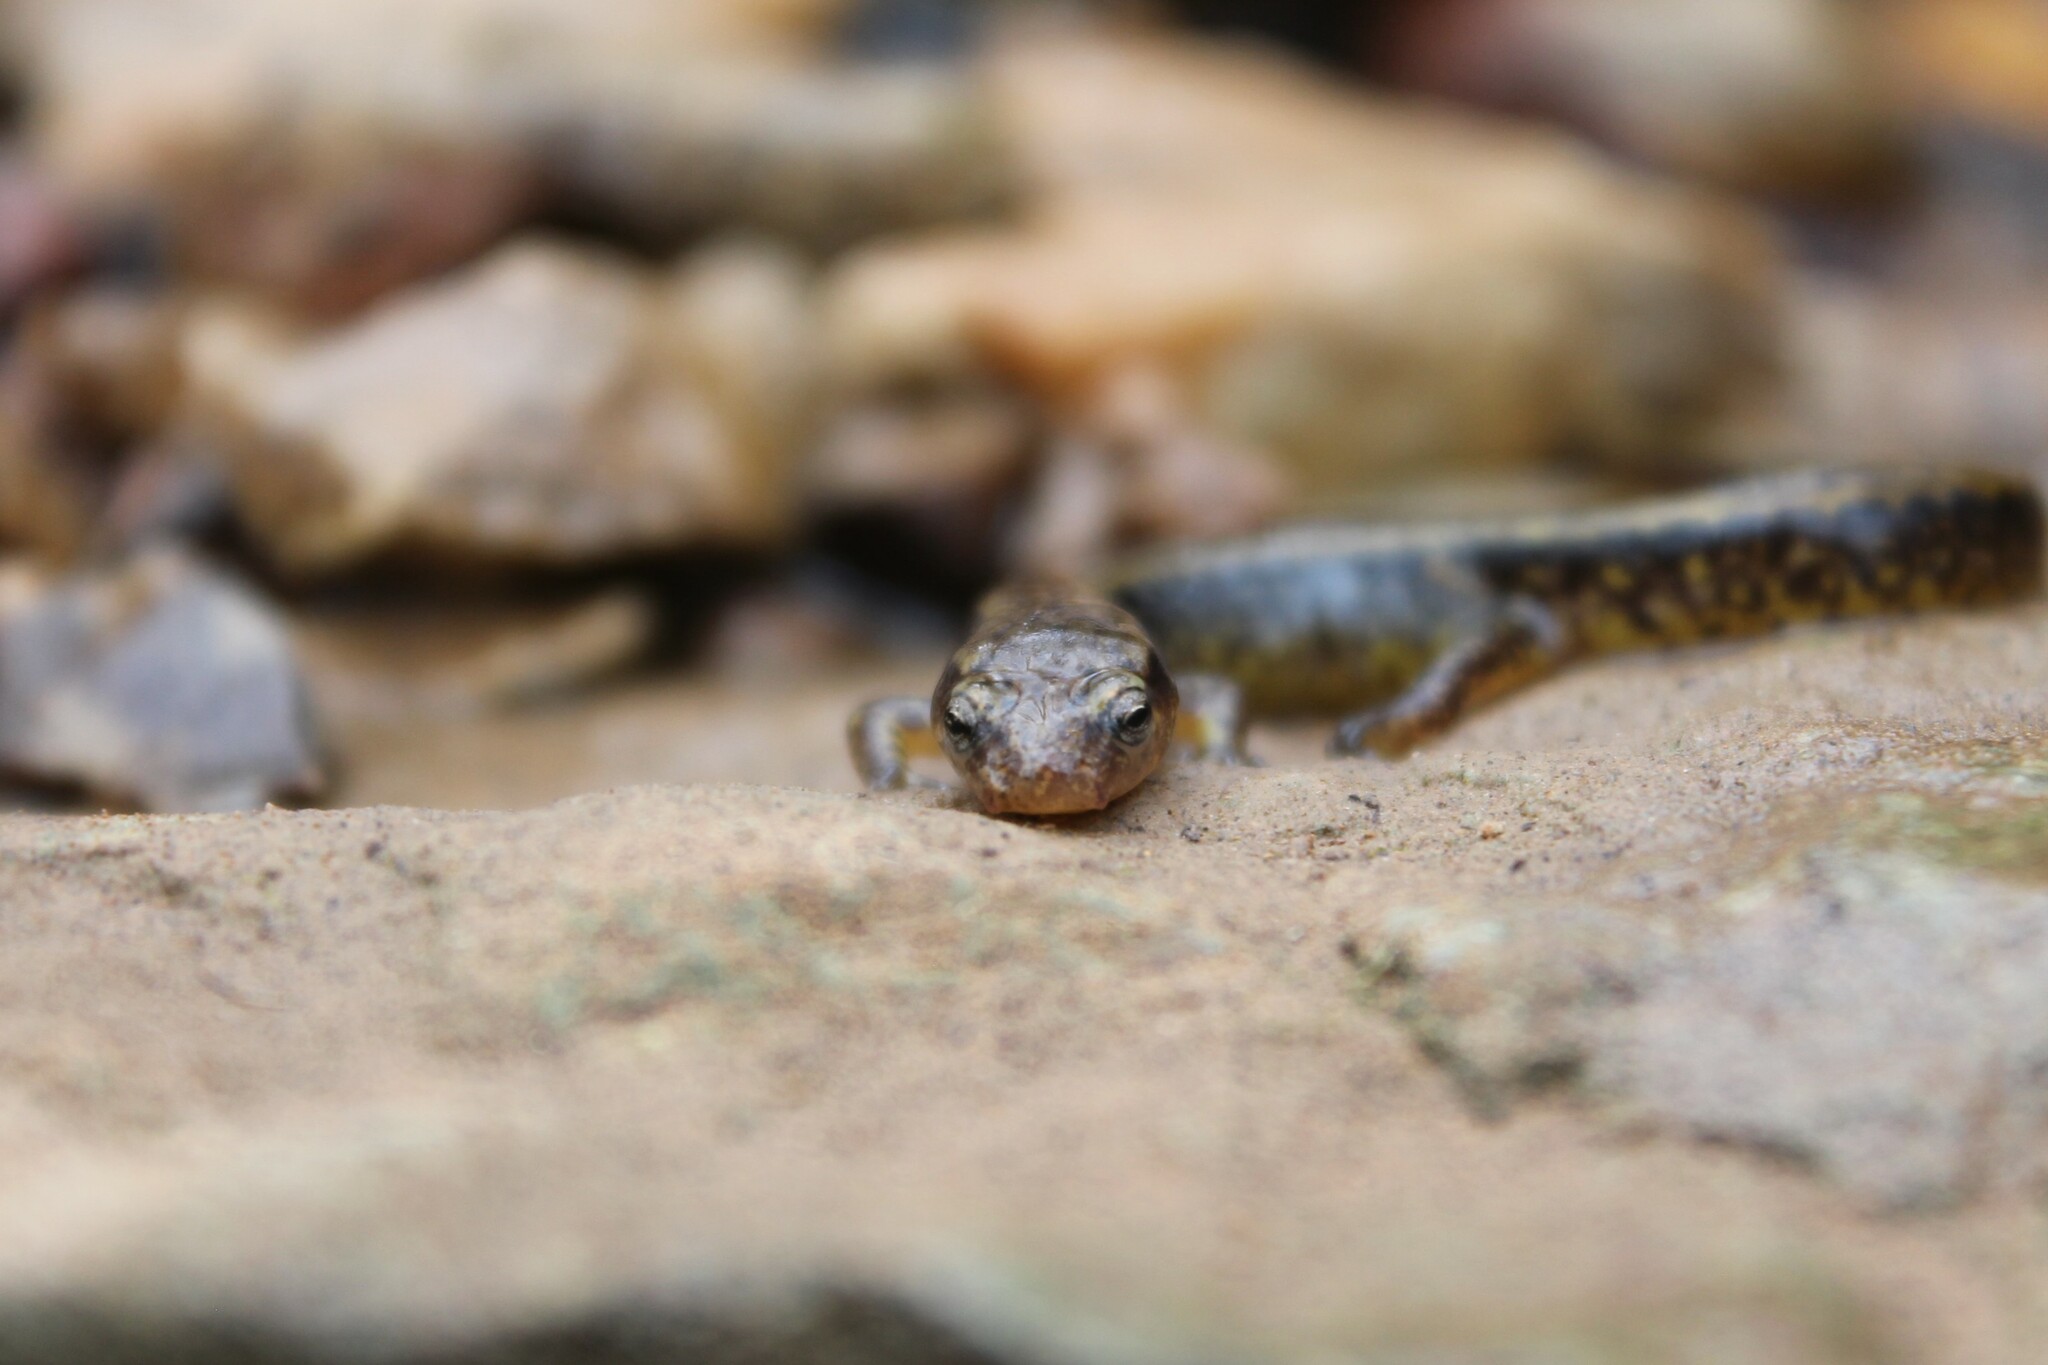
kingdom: Animalia
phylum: Chordata
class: Amphibia
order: Caudata
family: Plethodontidae
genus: Eurycea
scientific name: Eurycea cirrigera
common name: Southern two-lined salamander
